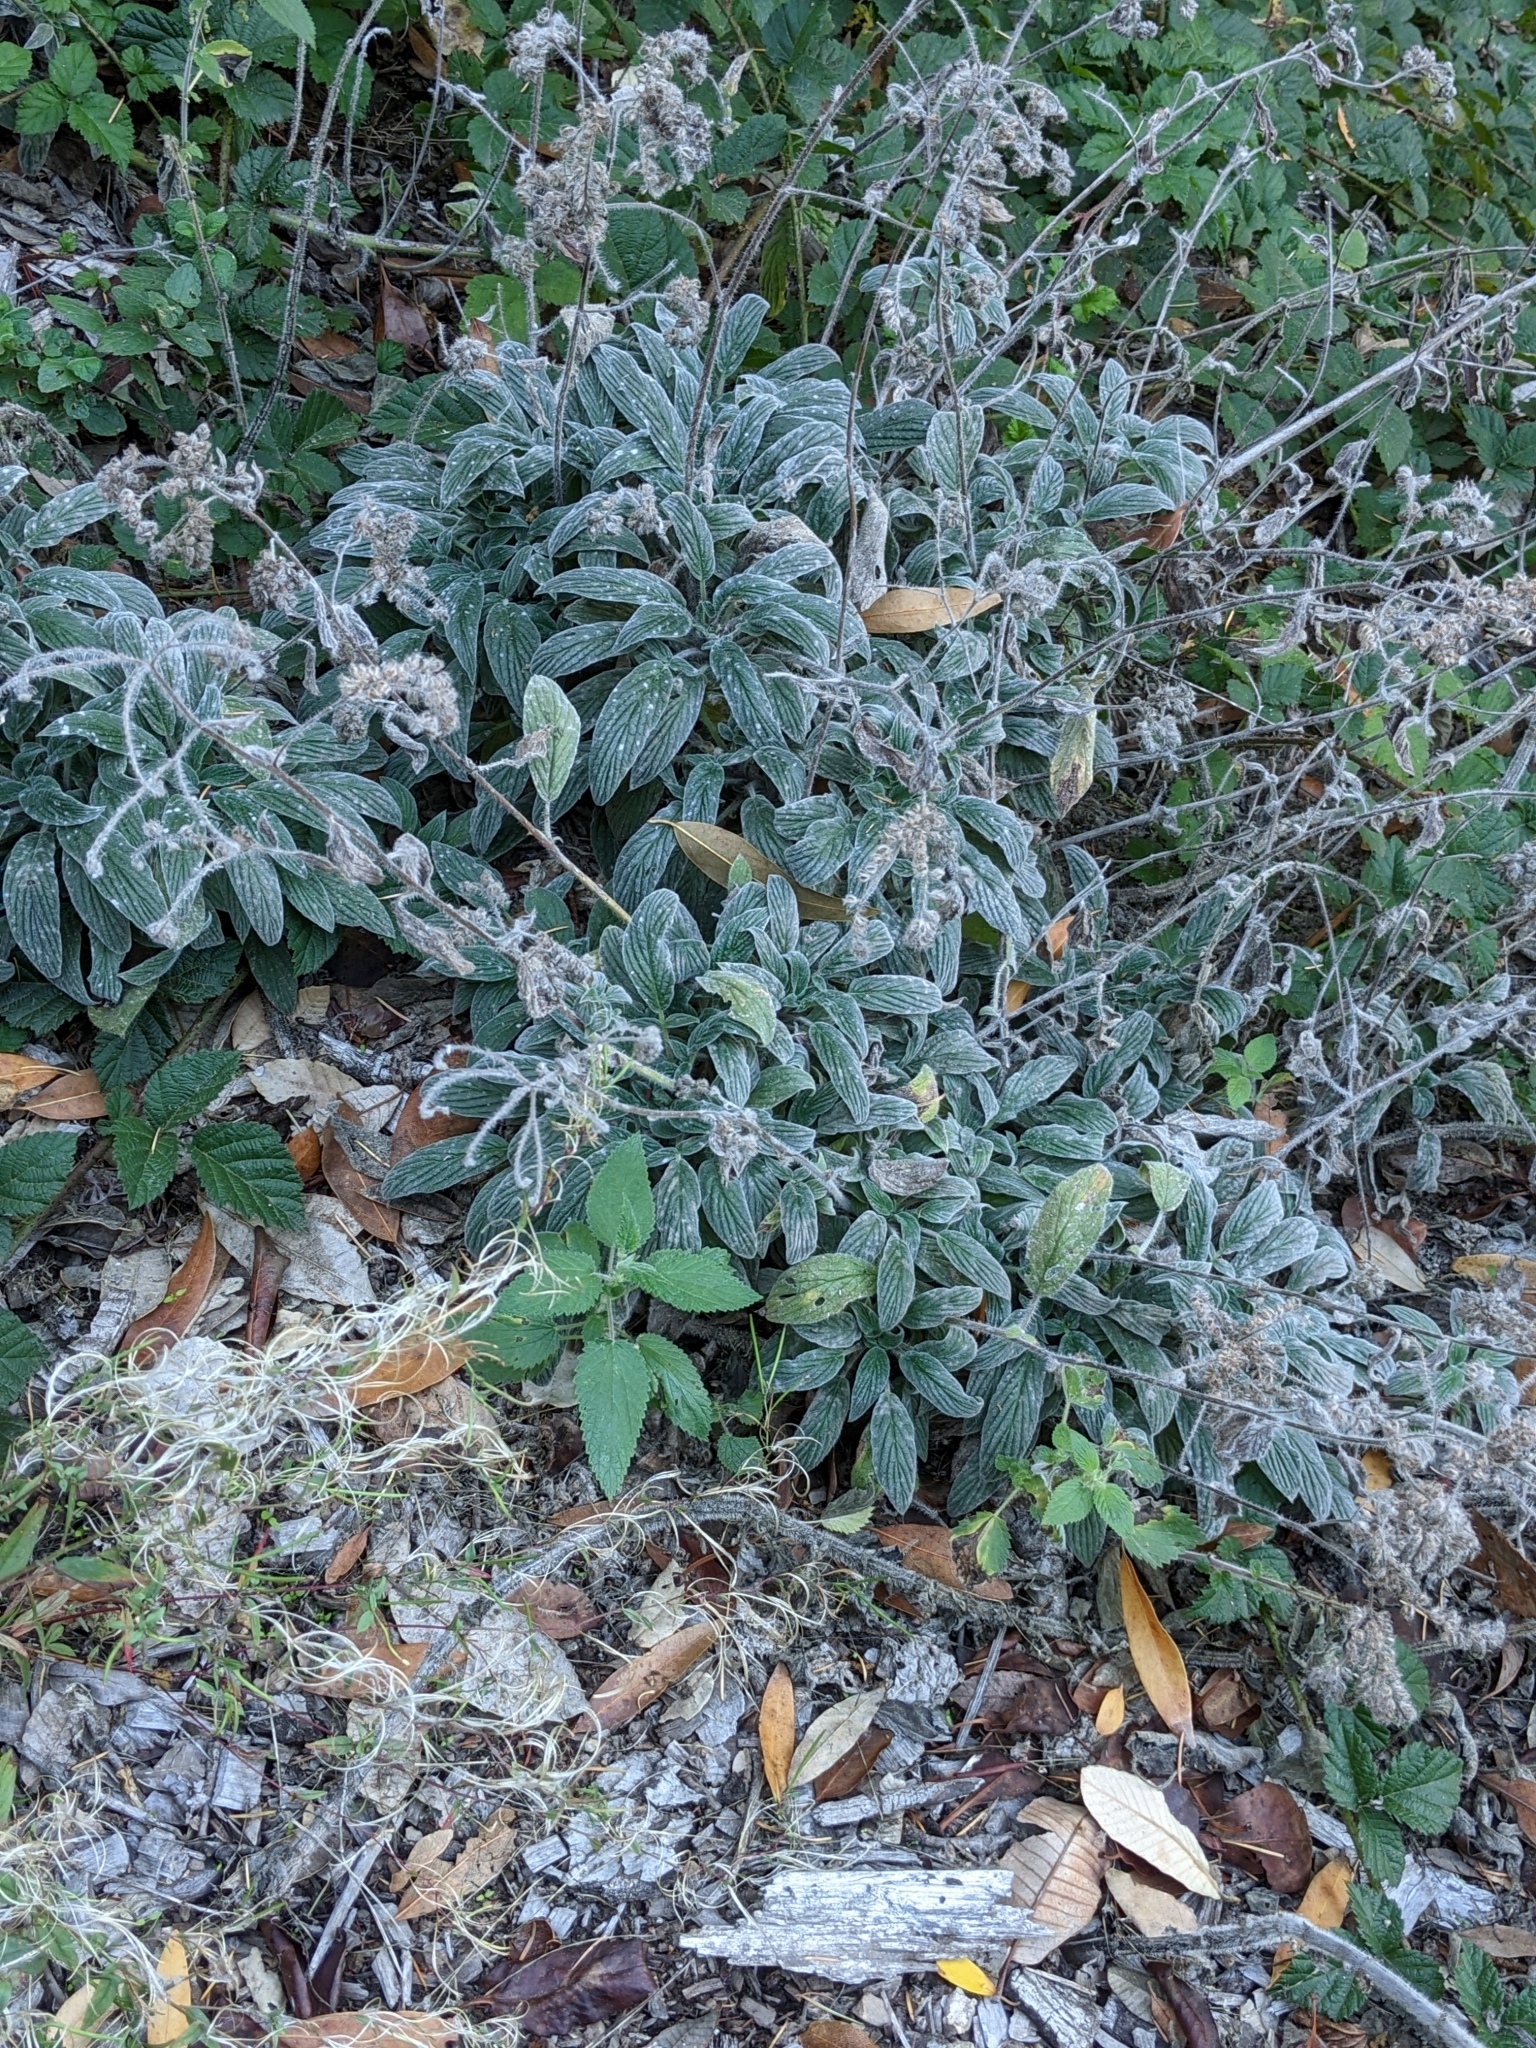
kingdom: Plantae
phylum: Tracheophyta
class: Magnoliopsida
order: Boraginales
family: Hydrophyllaceae
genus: Phacelia
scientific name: Phacelia californica
